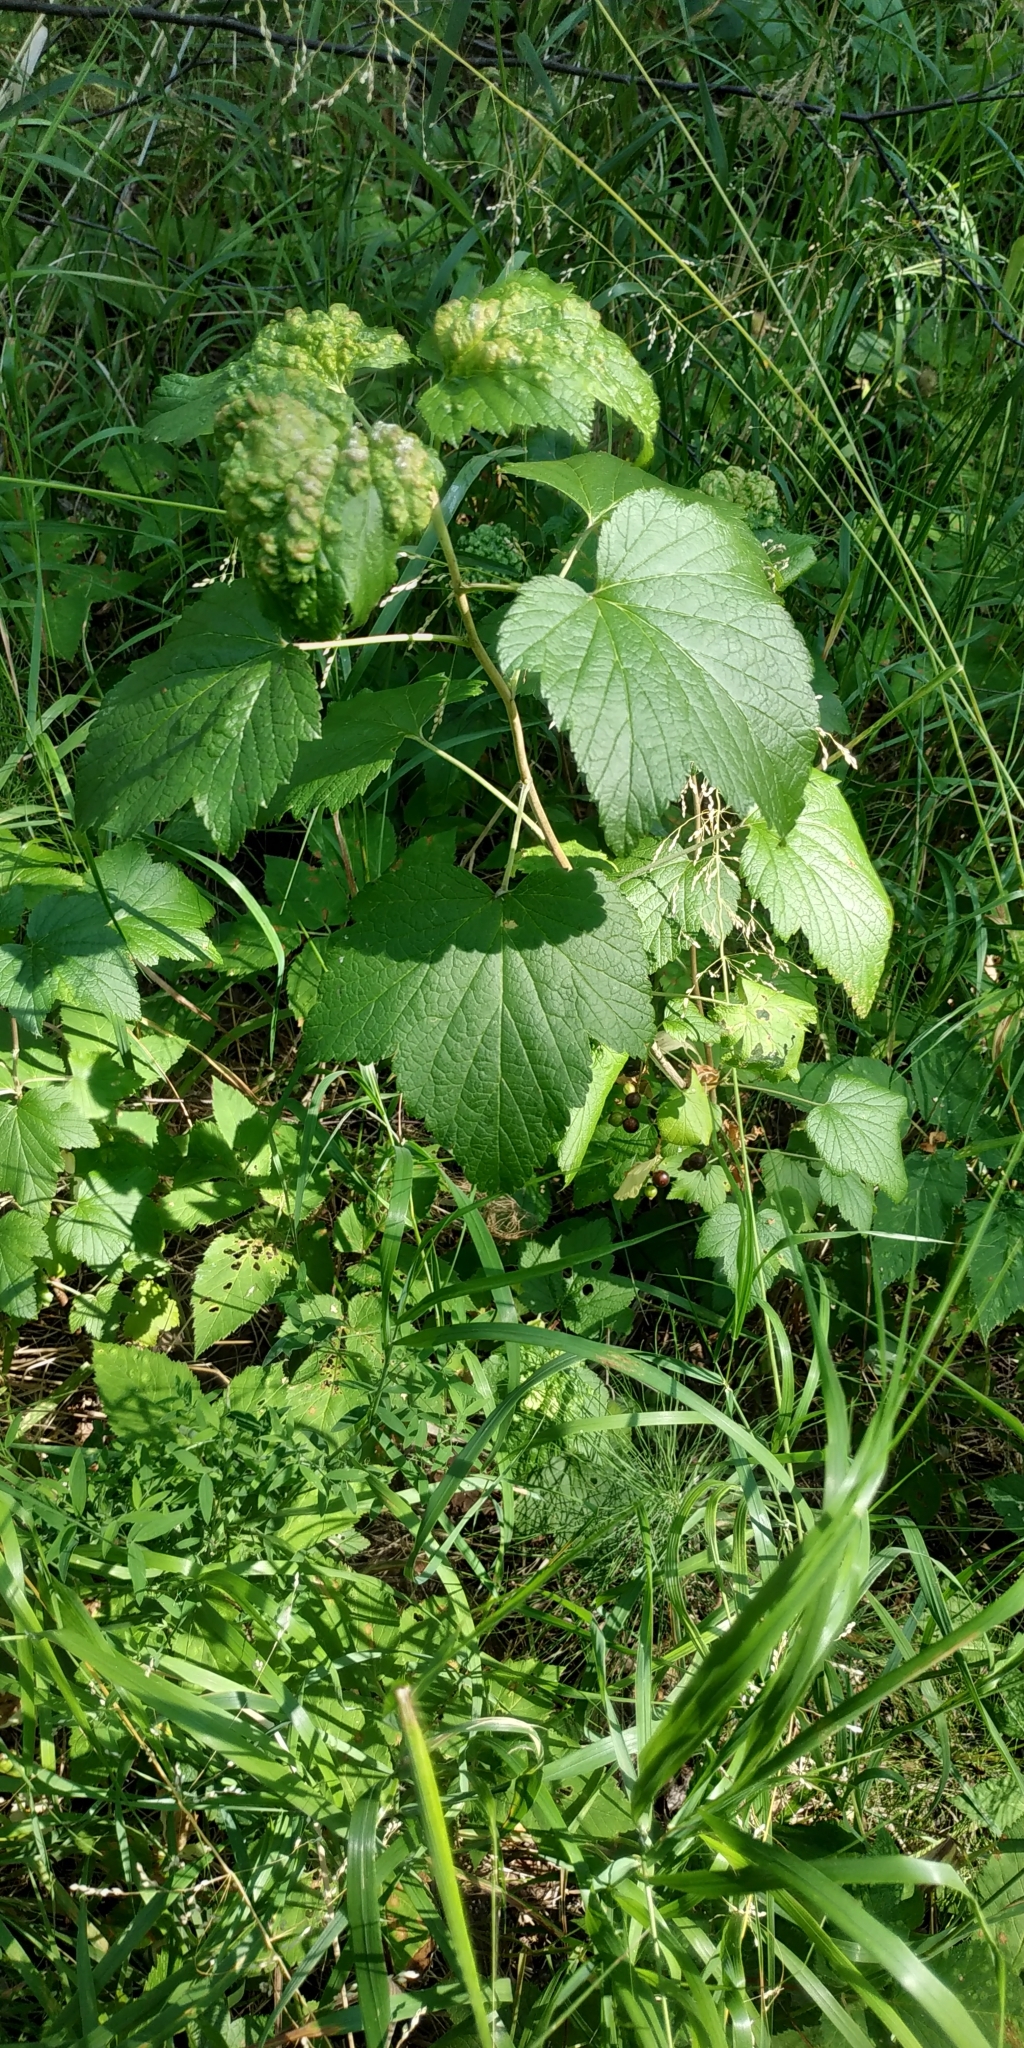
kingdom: Plantae
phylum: Tracheophyta
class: Magnoliopsida
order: Saxifragales
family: Grossulariaceae
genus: Ribes
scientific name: Ribes nigrum
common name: Black currant
